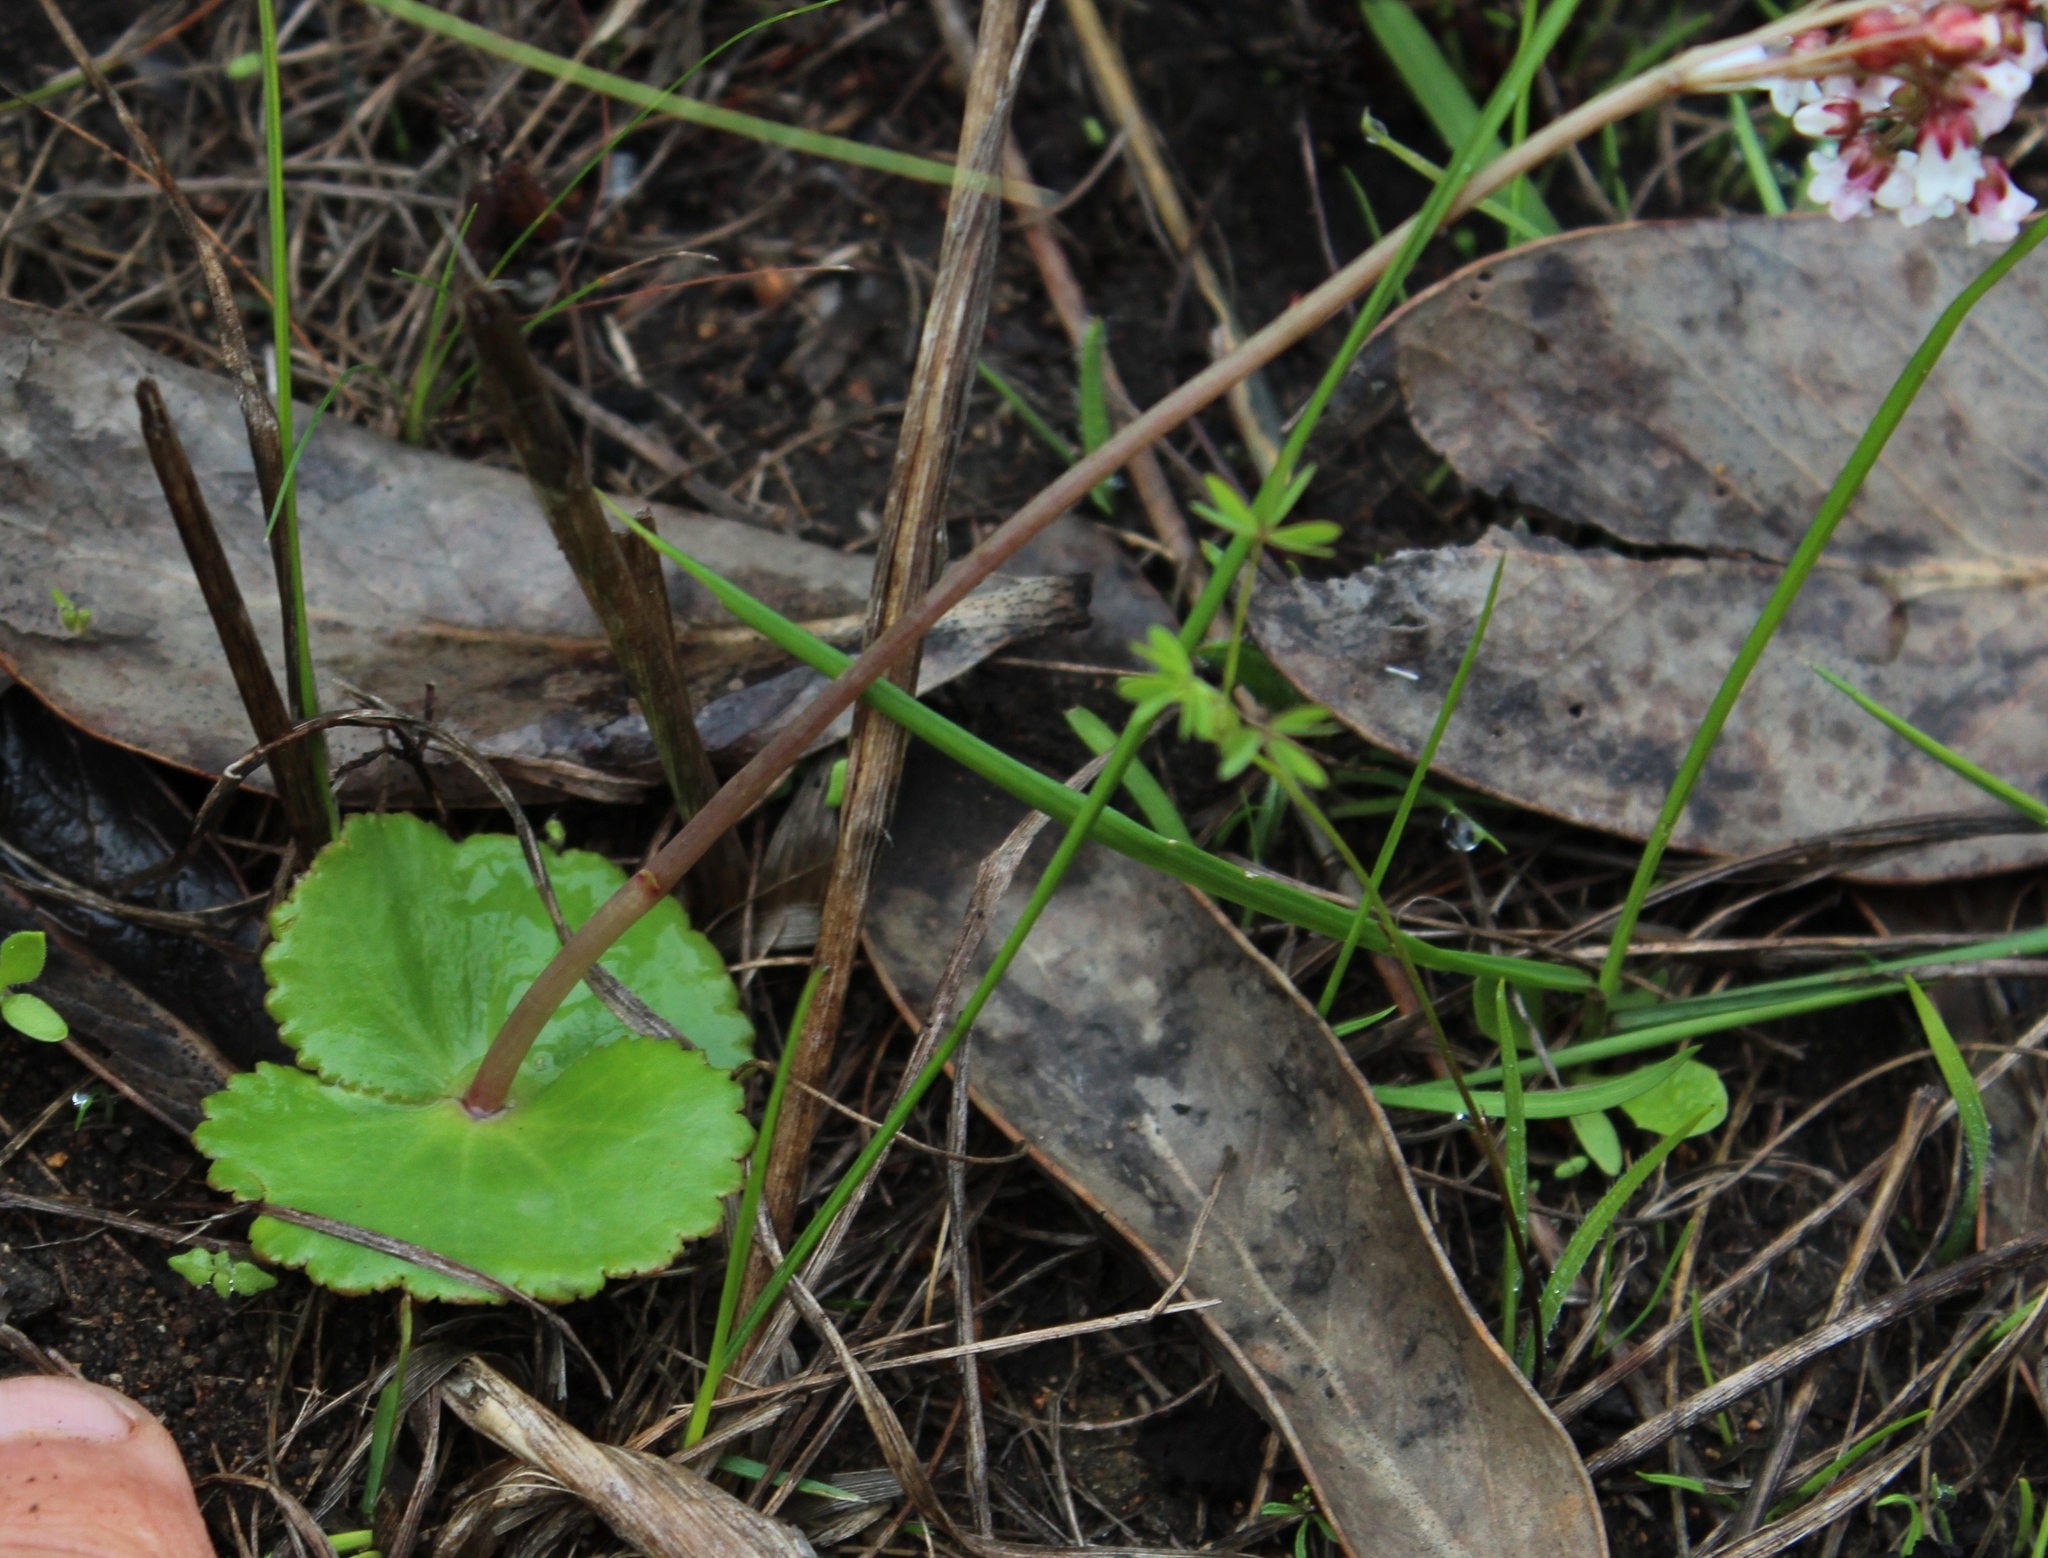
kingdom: Plantae
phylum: Tracheophyta
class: Magnoliopsida
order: Saxifragales
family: Crassulaceae
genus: Crassula
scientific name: Crassula saxifraga
